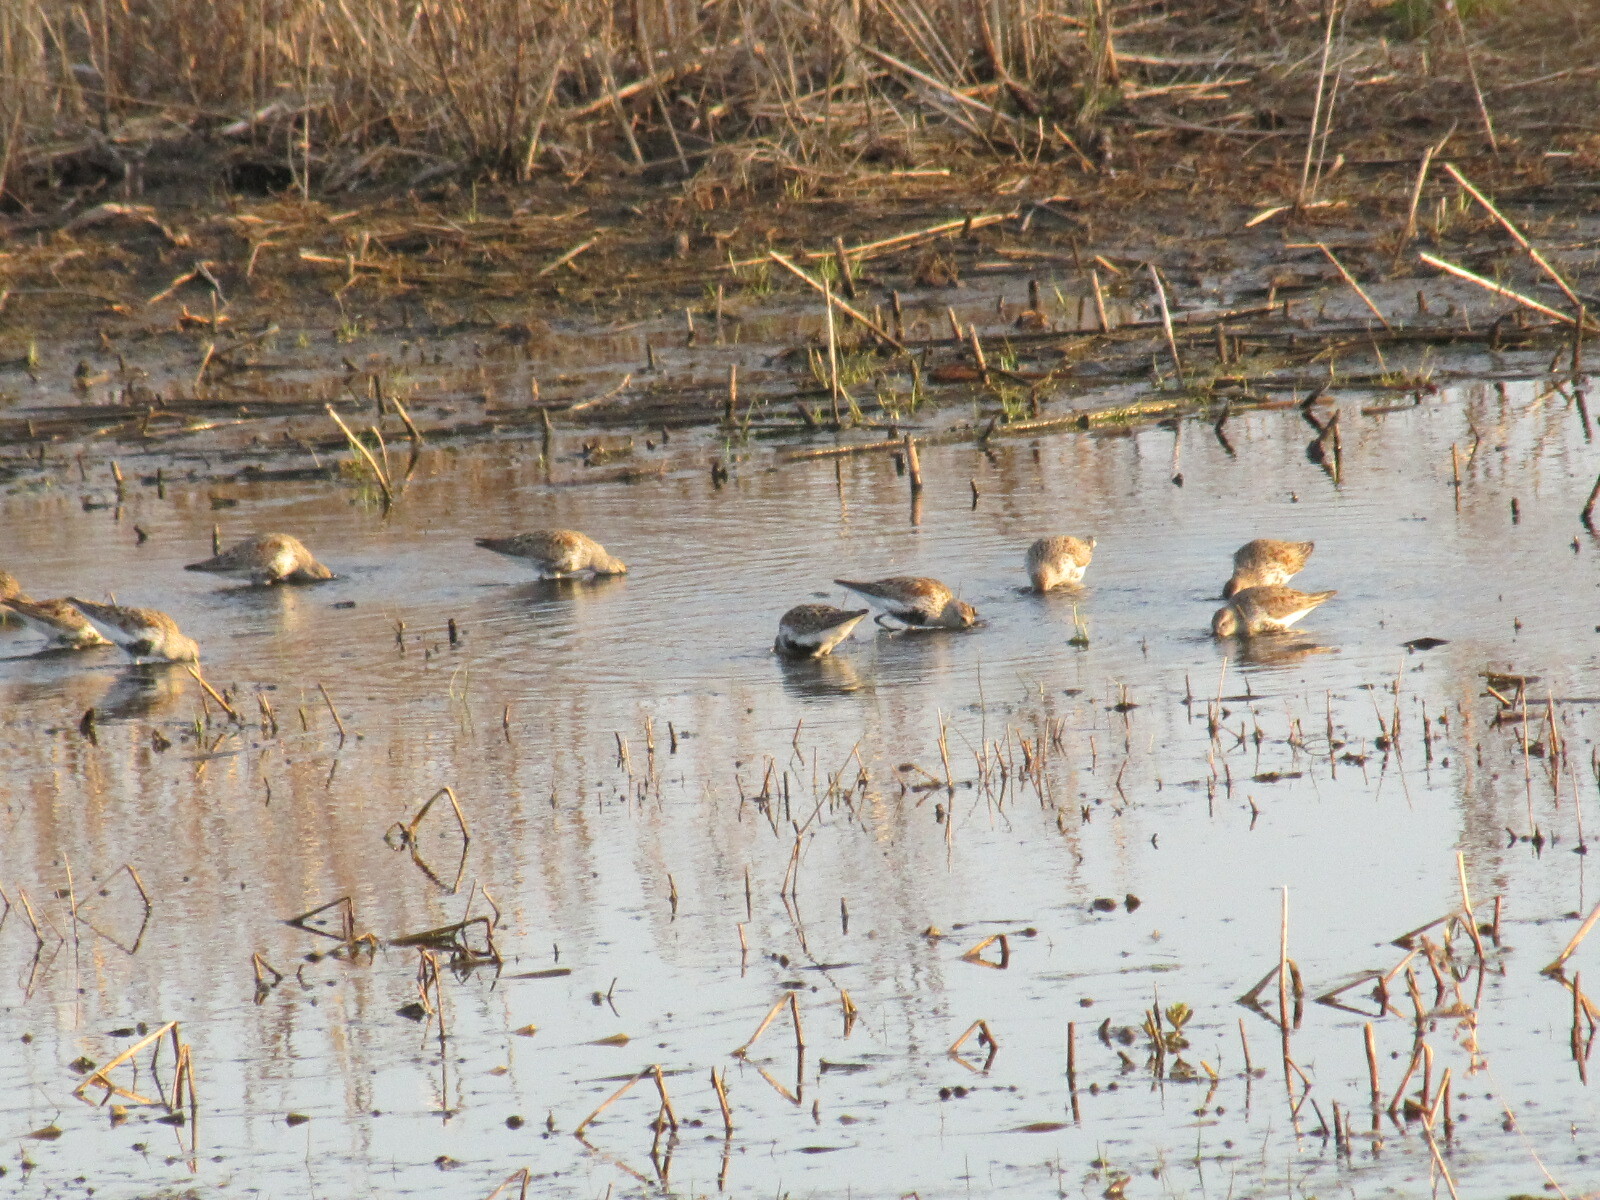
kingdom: Animalia
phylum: Chordata
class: Aves
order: Charadriiformes
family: Scolopacidae
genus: Calidris
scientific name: Calidris alpina
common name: Dunlin
